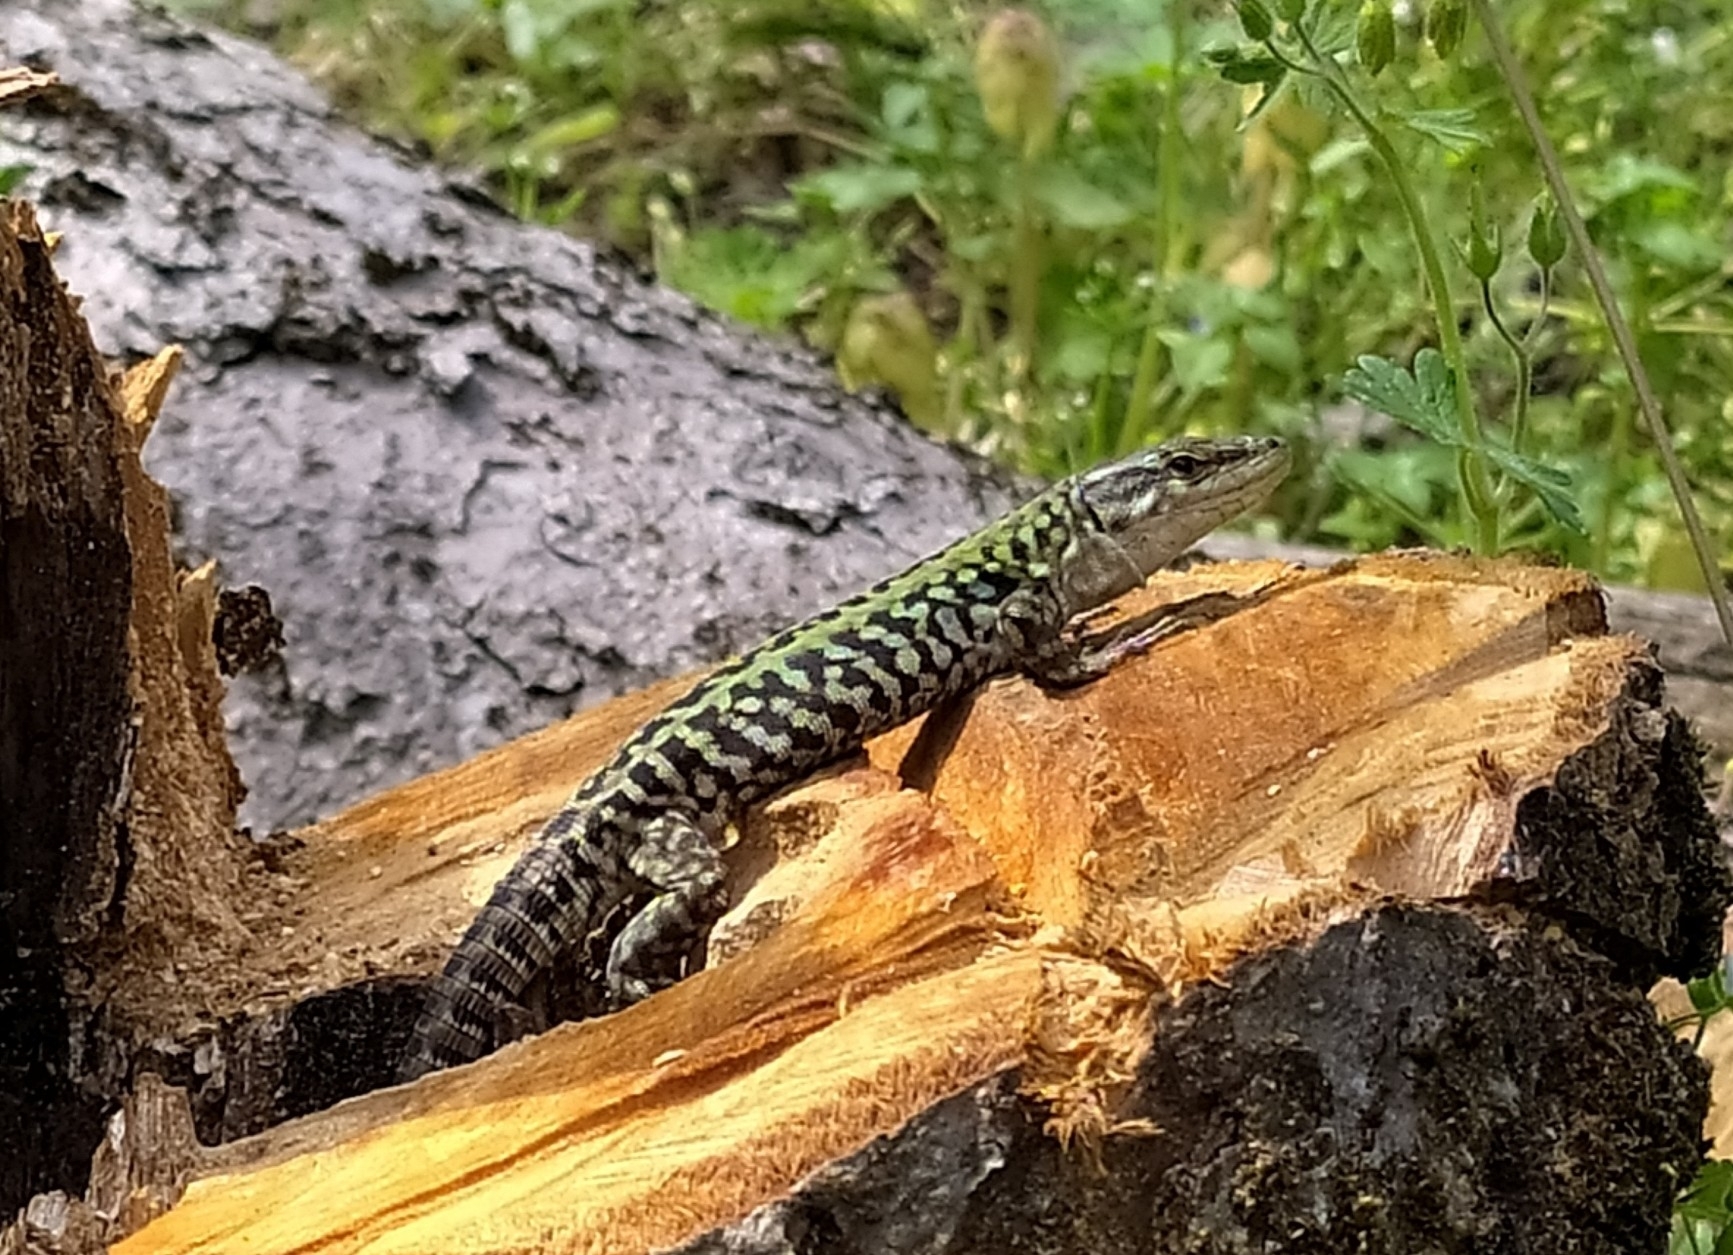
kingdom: Animalia
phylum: Chordata
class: Squamata
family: Lacertidae
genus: Podarcis
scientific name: Podarcis siculus
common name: Italian wall lizard
